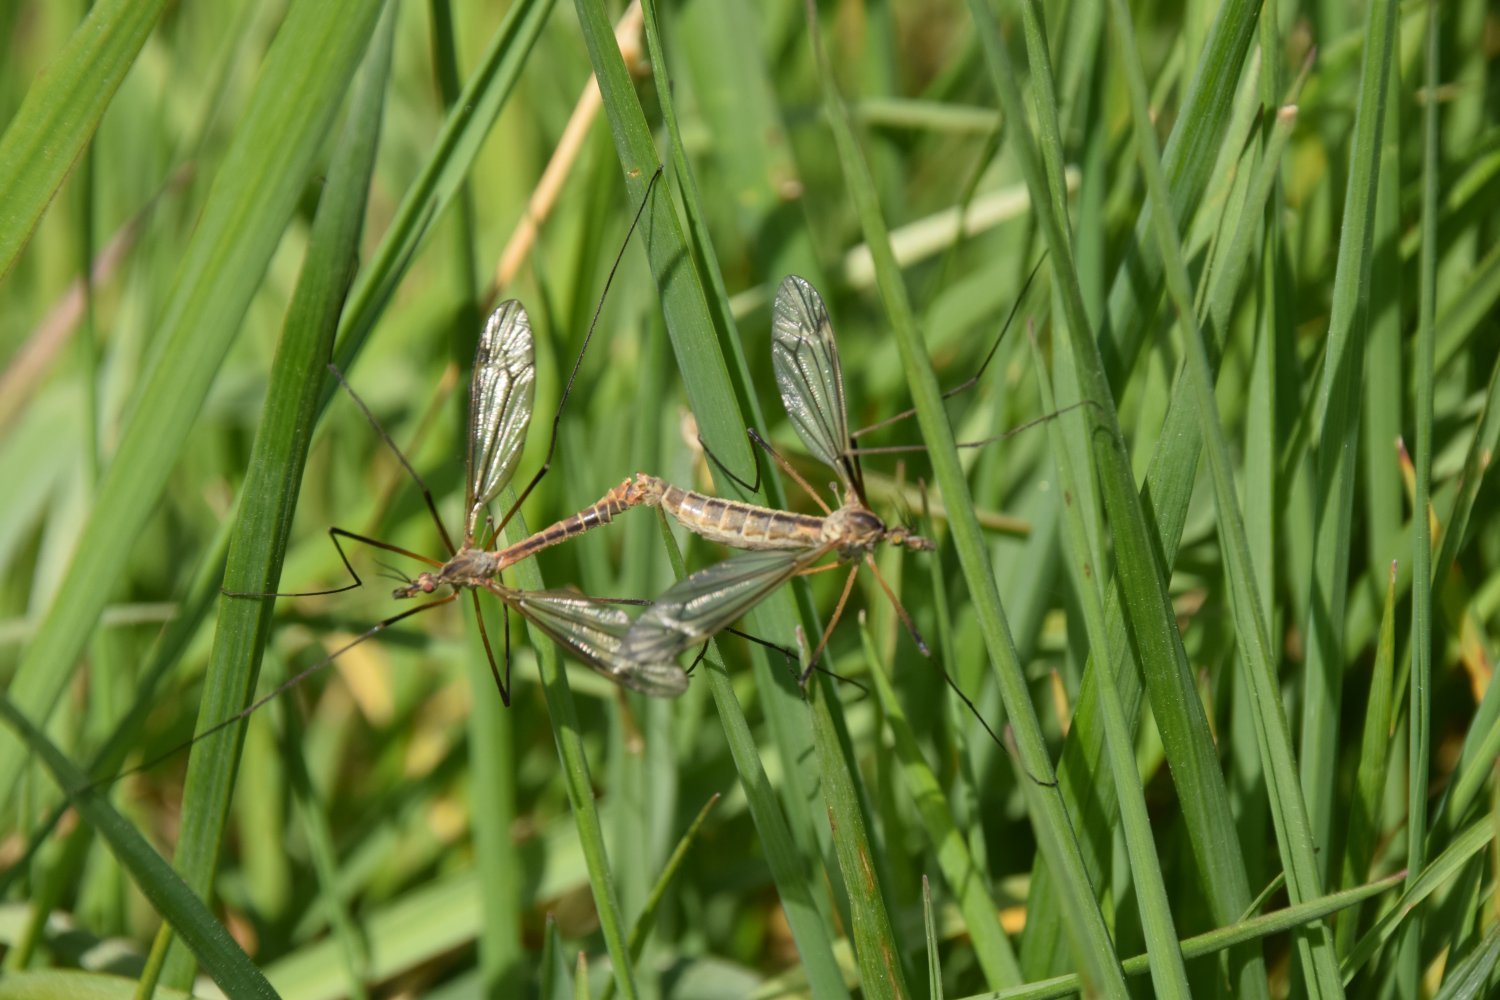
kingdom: Animalia
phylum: Arthropoda
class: Insecta
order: Diptera
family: Tipulidae
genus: Tipula
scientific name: Tipula vernalis
